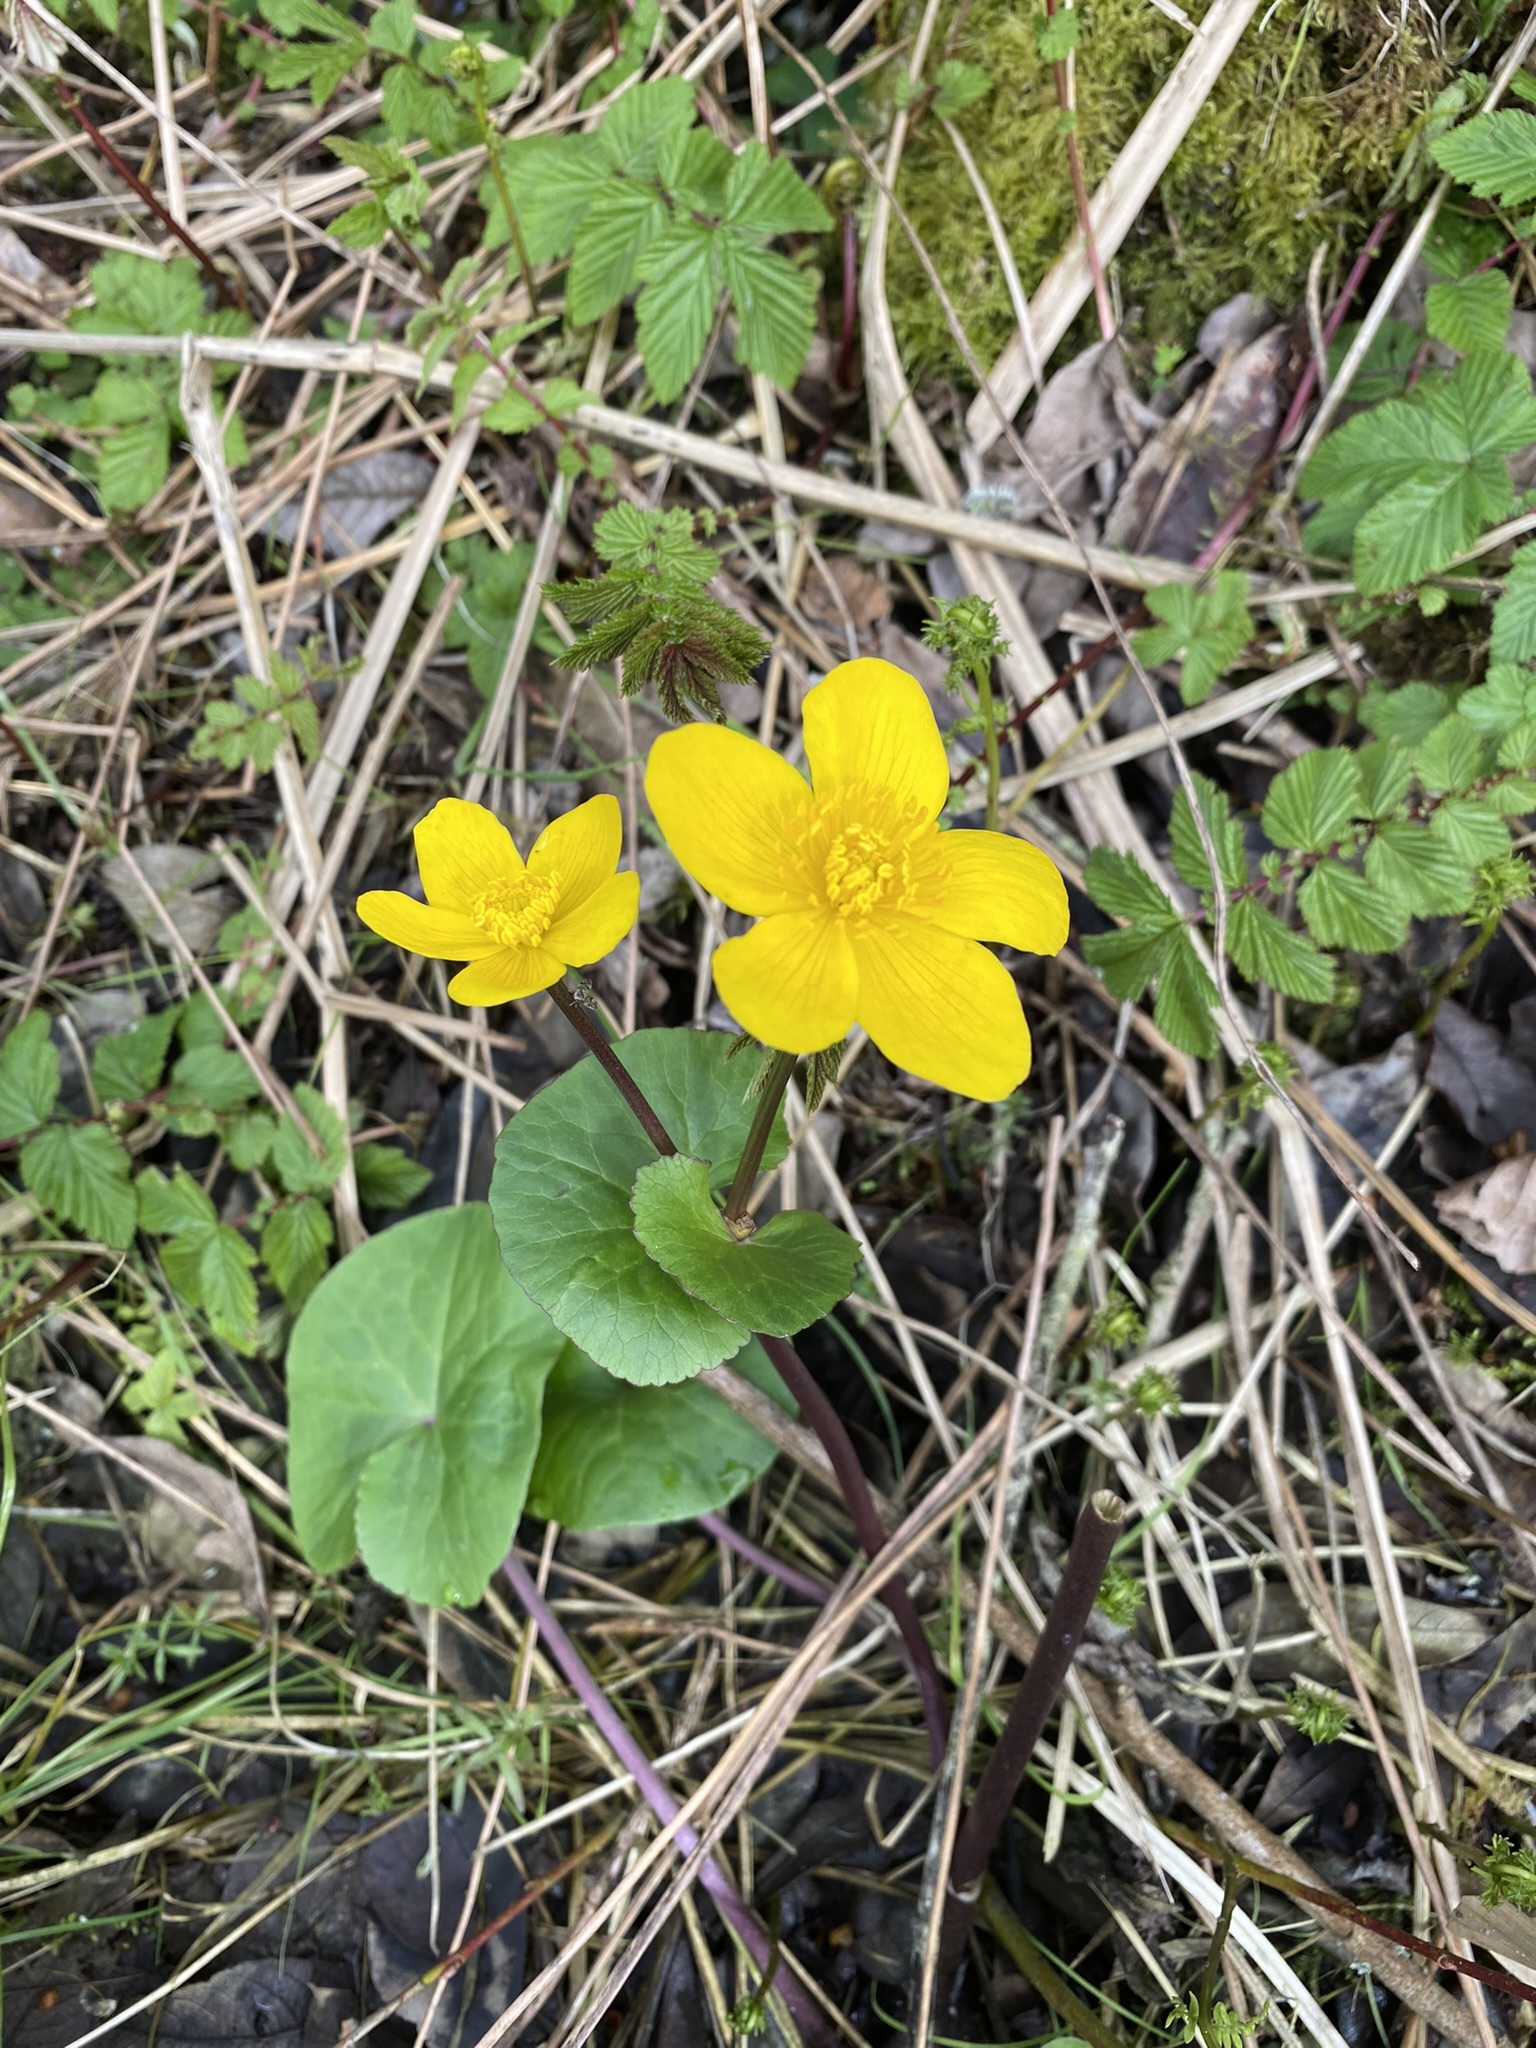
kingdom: Plantae
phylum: Tracheophyta
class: Magnoliopsida
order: Ranunculales
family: Ranunculaceae
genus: Caltha
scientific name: Caltha palustris
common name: Marsh marigold
